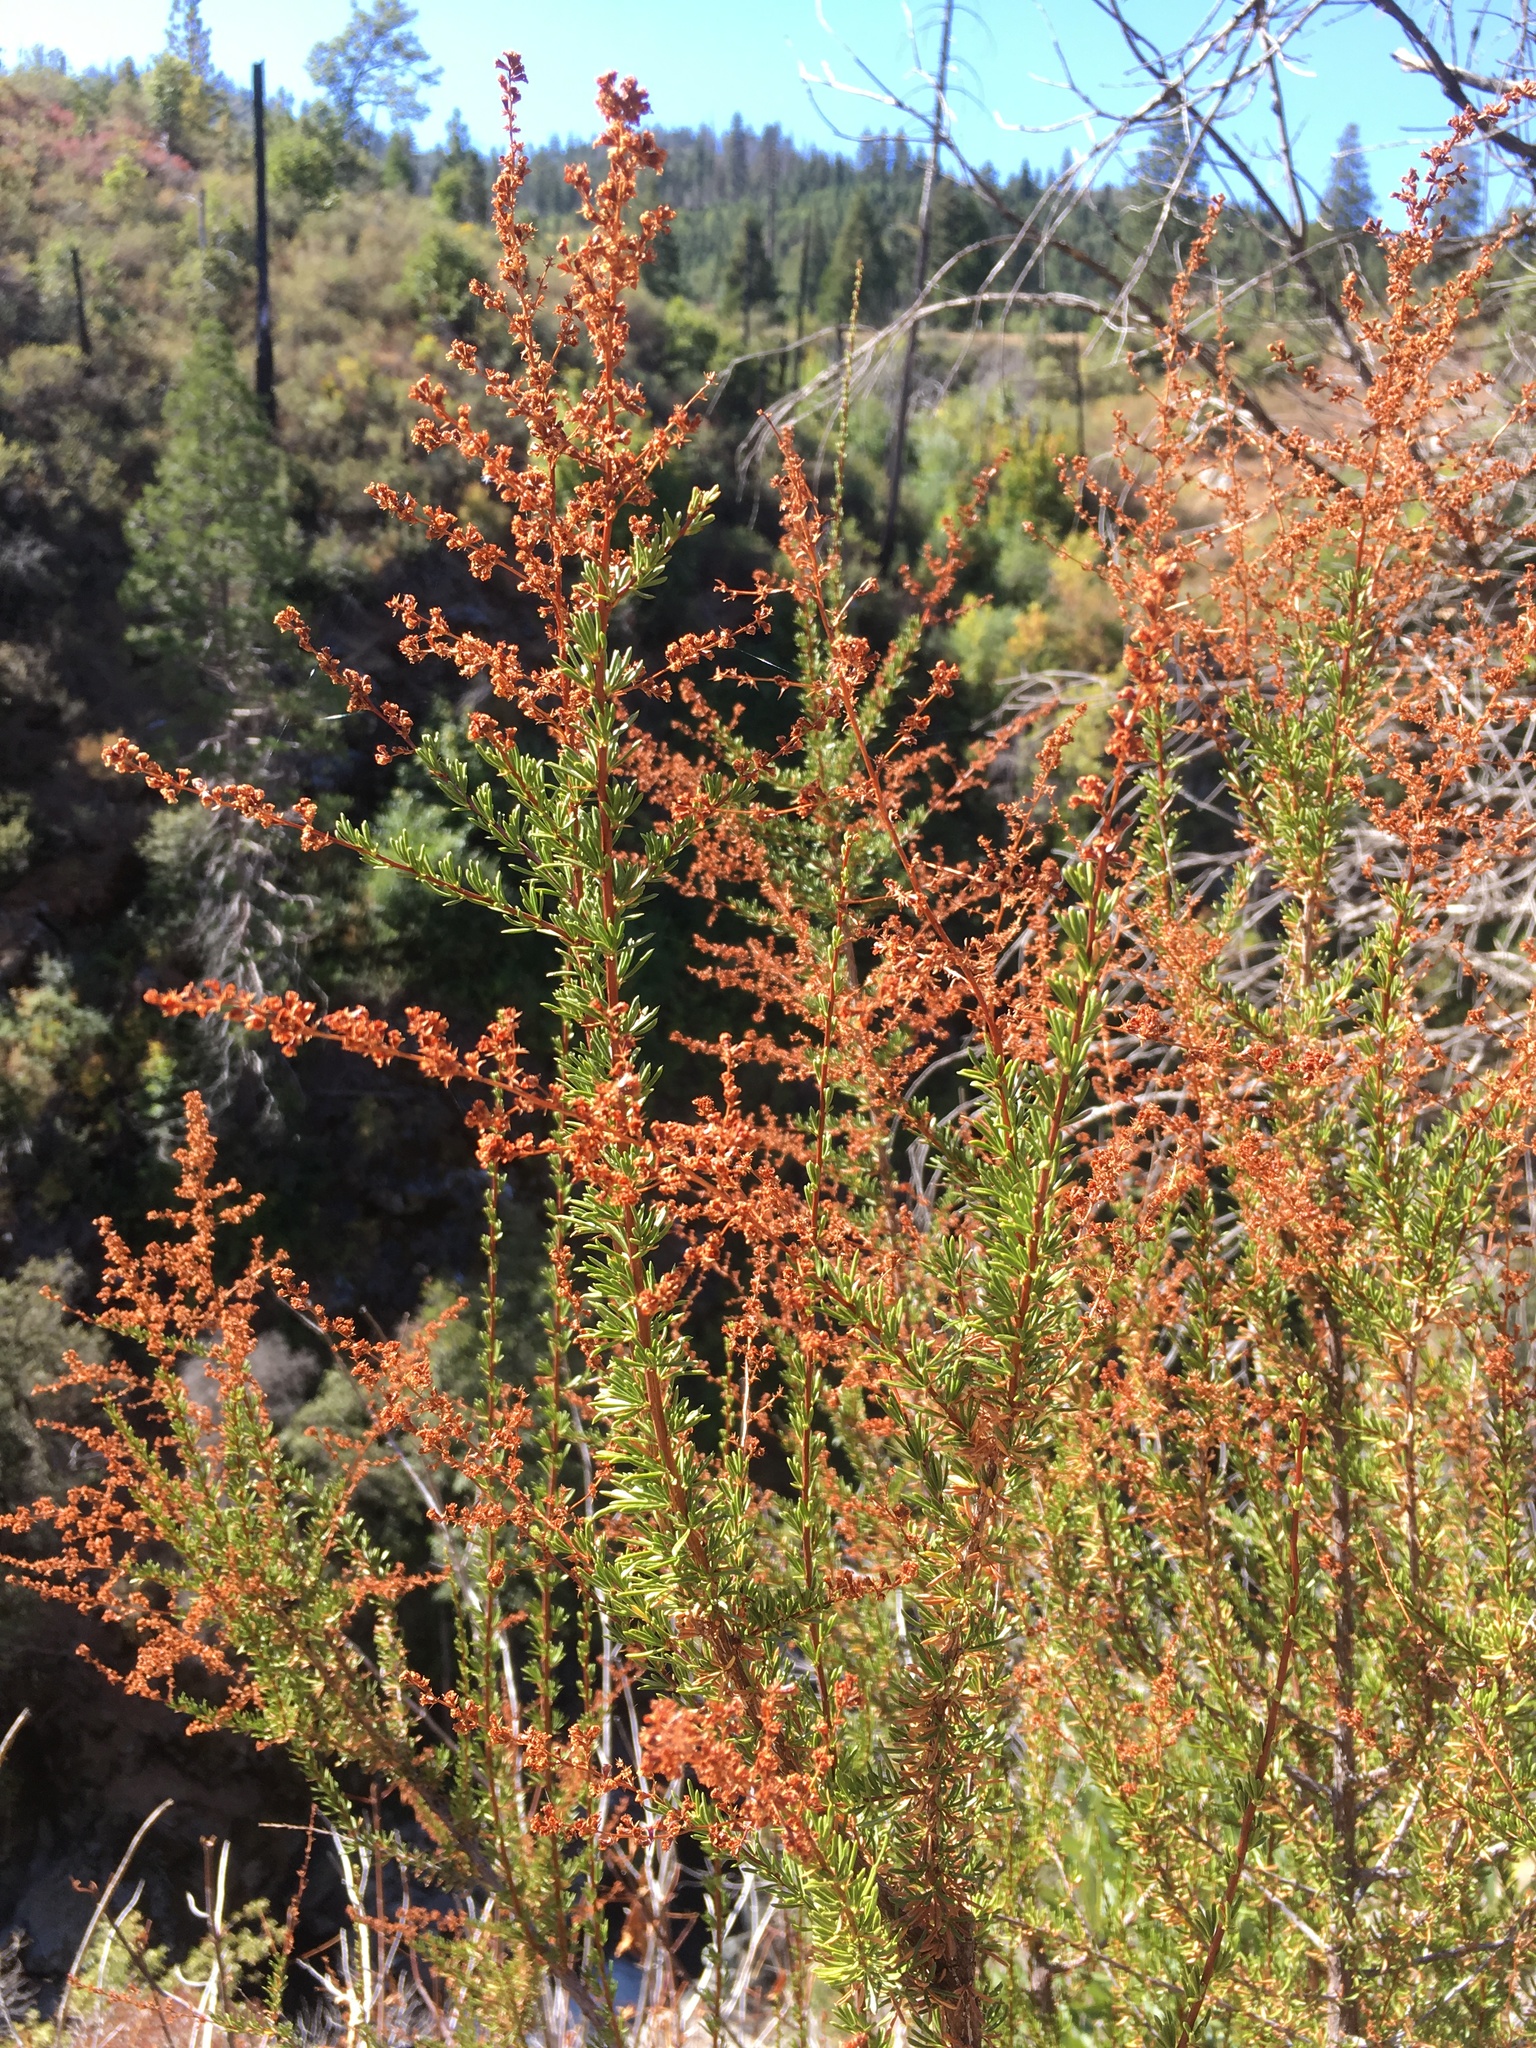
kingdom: Plantae
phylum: Tracheophyta
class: Magnoliopsida
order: Rosales
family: Rosaceae
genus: Adenostoma
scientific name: Adenostoma fasciculatum
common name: Chamise
